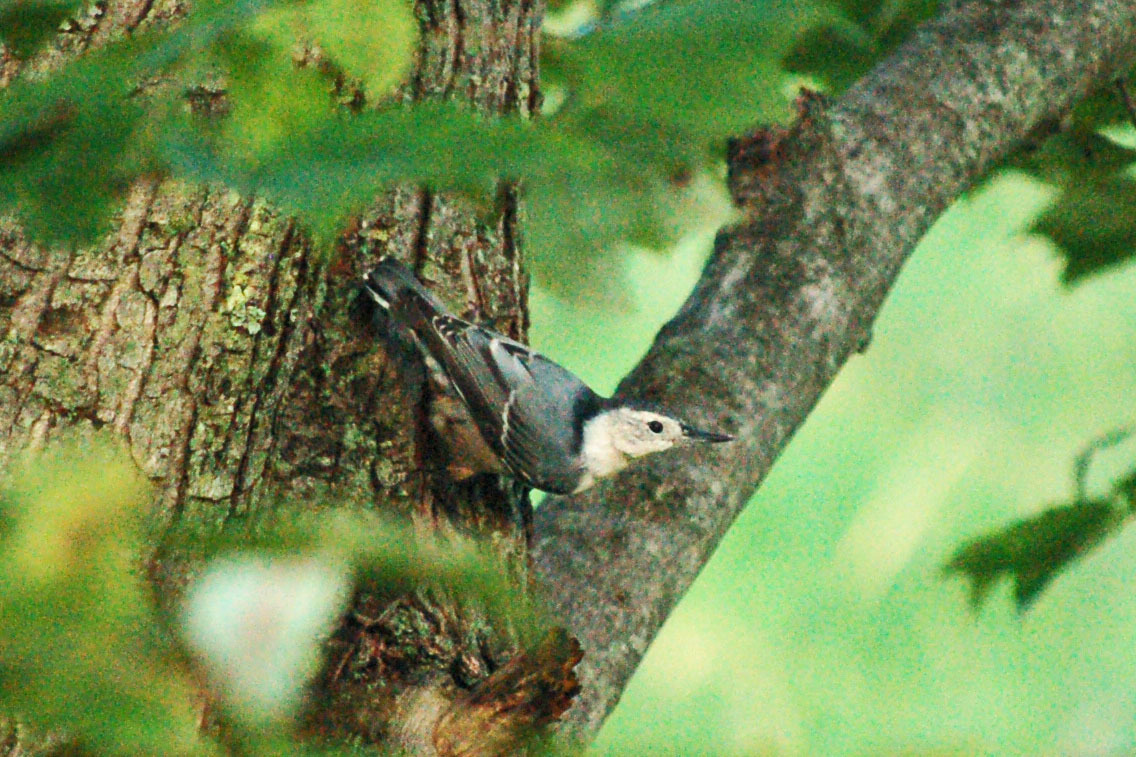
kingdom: Animalia
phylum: Chordata
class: Aves
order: Passeriformes
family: Sittidae
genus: Sitta
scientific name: Sitta carolinensis
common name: White-breasted nuthatch
